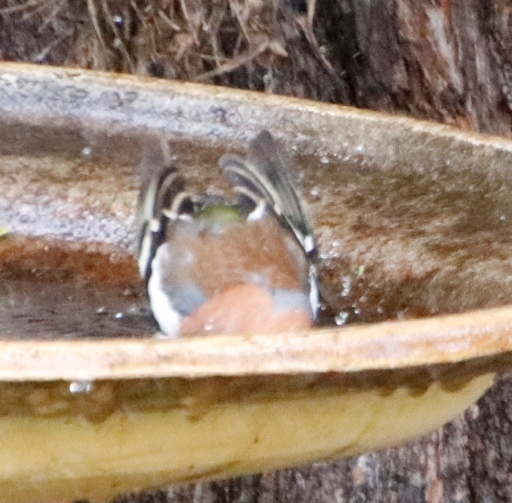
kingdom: Animalia
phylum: Chordata
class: Aves
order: Passeriformes
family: Fringillidae
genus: Fringilla
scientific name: Fringilla coelebs
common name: Common chaffinch
